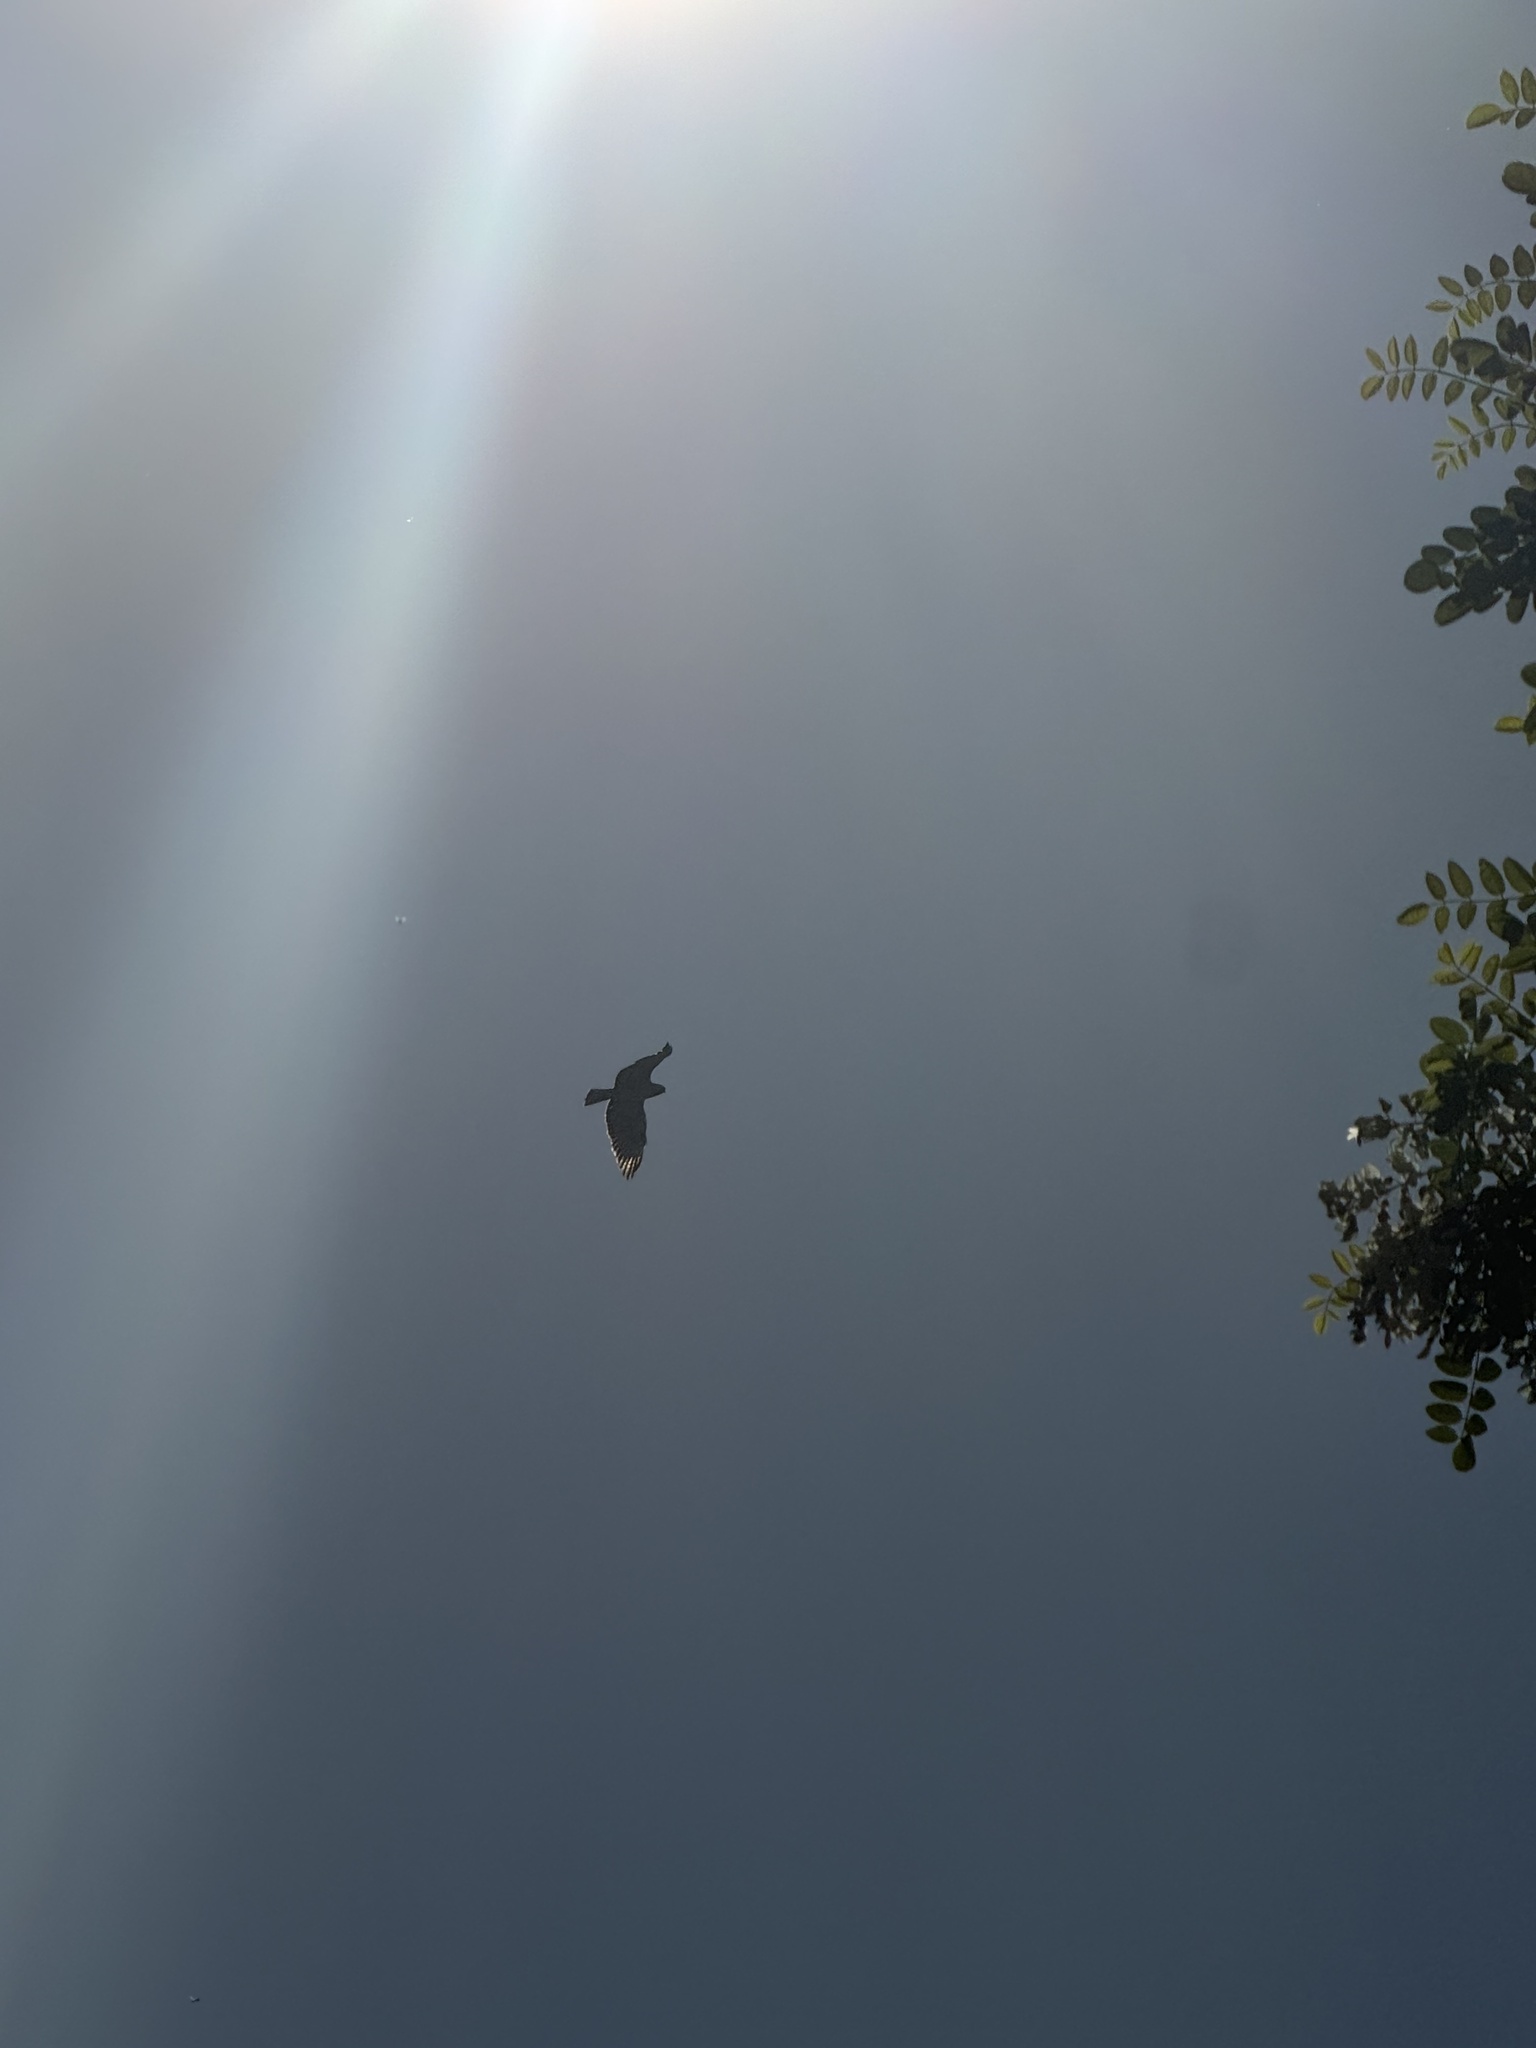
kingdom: Animalia
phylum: Chordata
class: Aves
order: Accipitriformes
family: Accipitridae
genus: Buteo
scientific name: Buteo jamaicensis
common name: Red-tailed hawk
